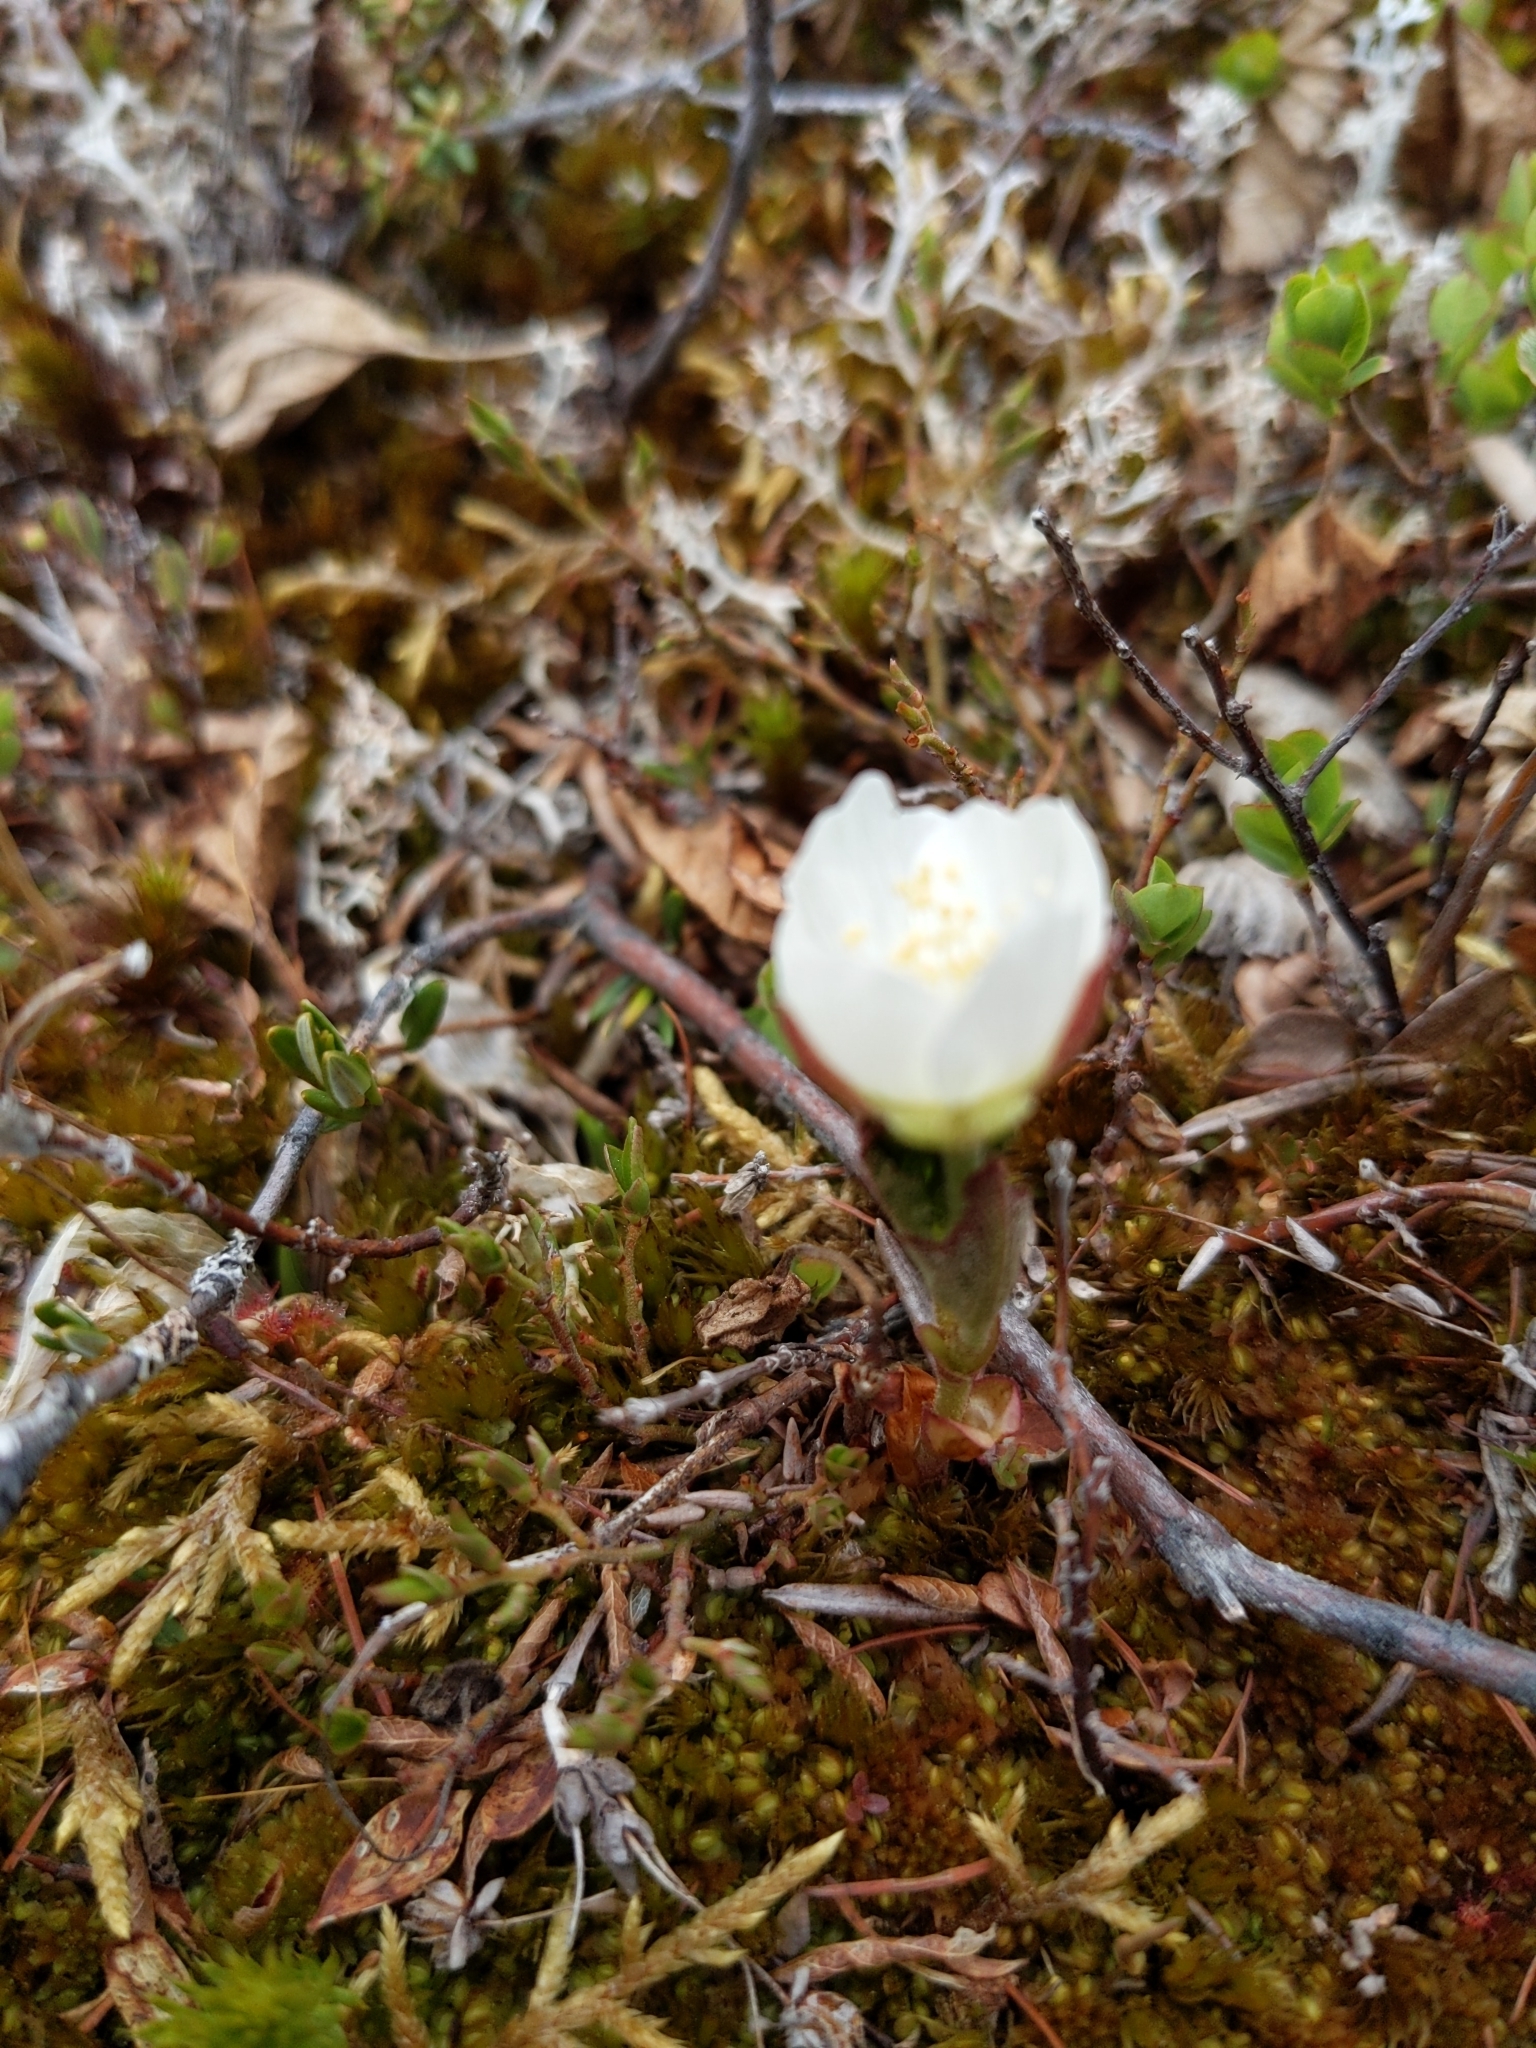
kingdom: Plantae
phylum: Tracheophyta
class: Magnoliopsida
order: Rosales
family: Rosaceae
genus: Rubus
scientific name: Rubus chamaemorus
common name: Cloudberry
